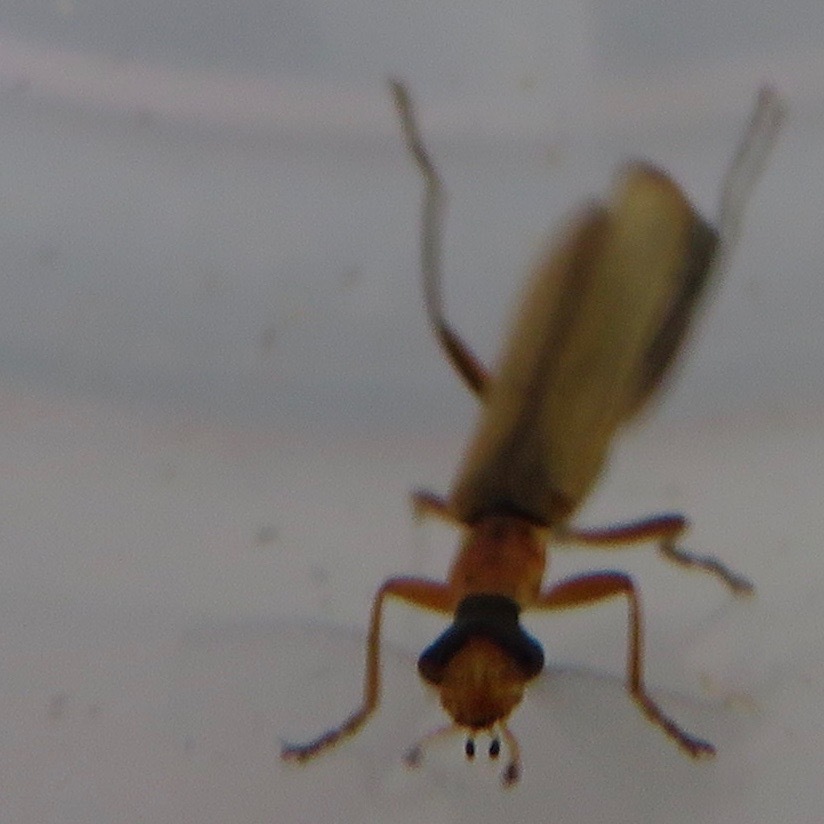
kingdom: Animalia
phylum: Arthropoda
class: Insecta
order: Coleoptera
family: Cantharidae
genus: Dichelotarsus
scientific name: Dichelotarsus cavicollis
